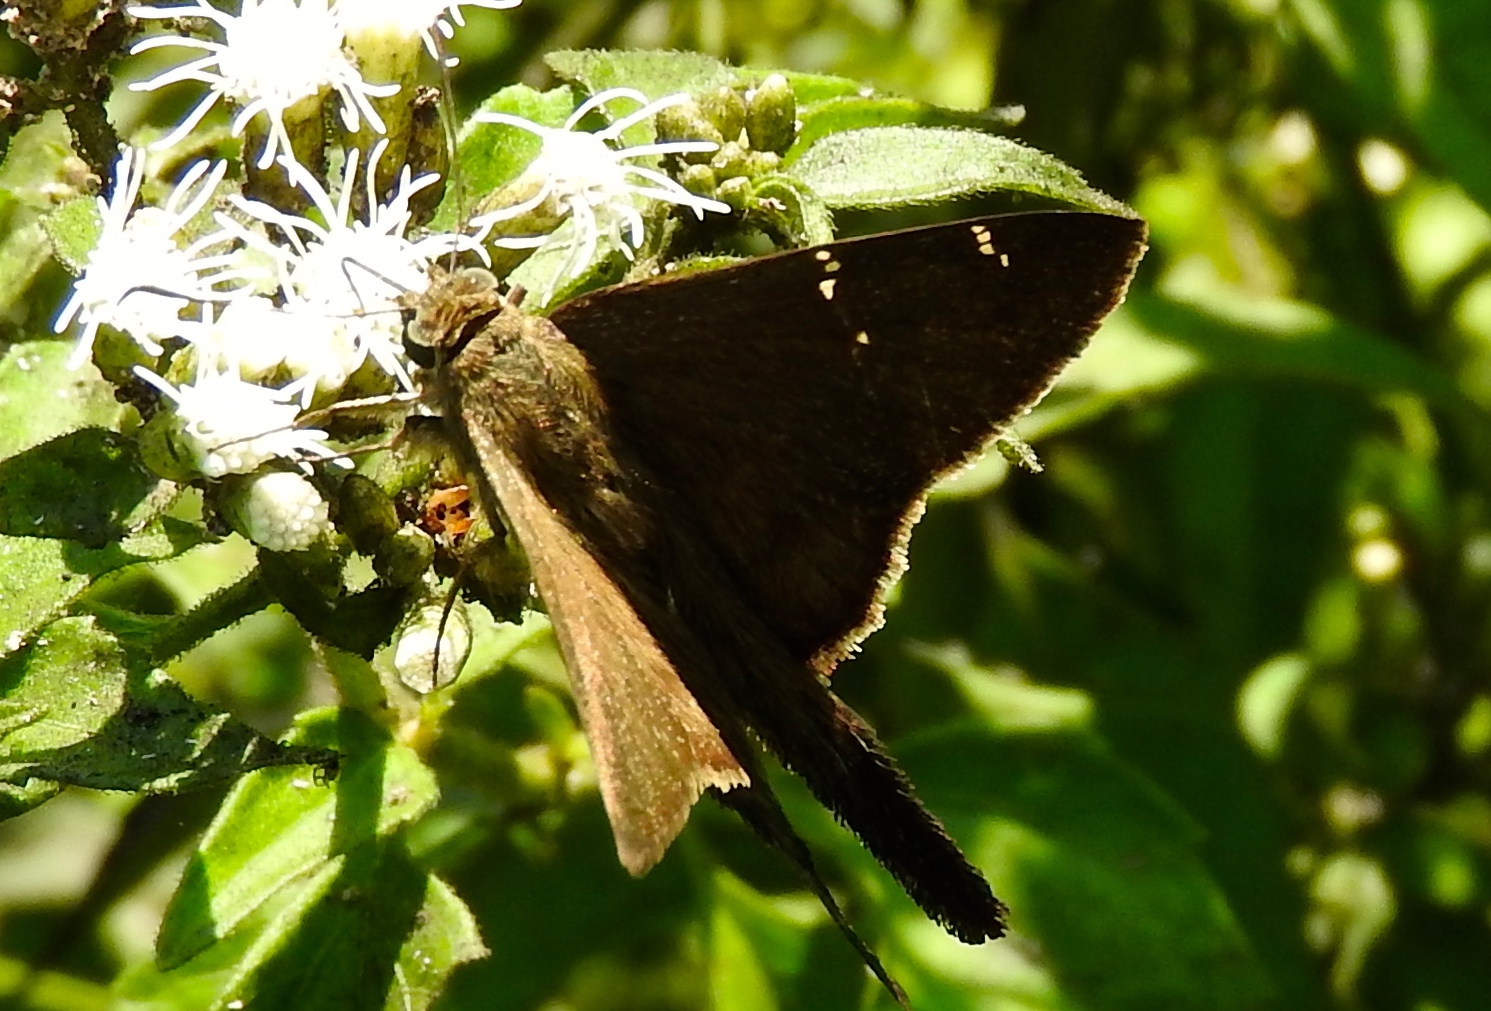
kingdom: Animalia
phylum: Arthropoda
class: Insecta
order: Lepidoptera
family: Hesperiidae
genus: Urbanus
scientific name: Urbanus procne
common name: Brown longtail
